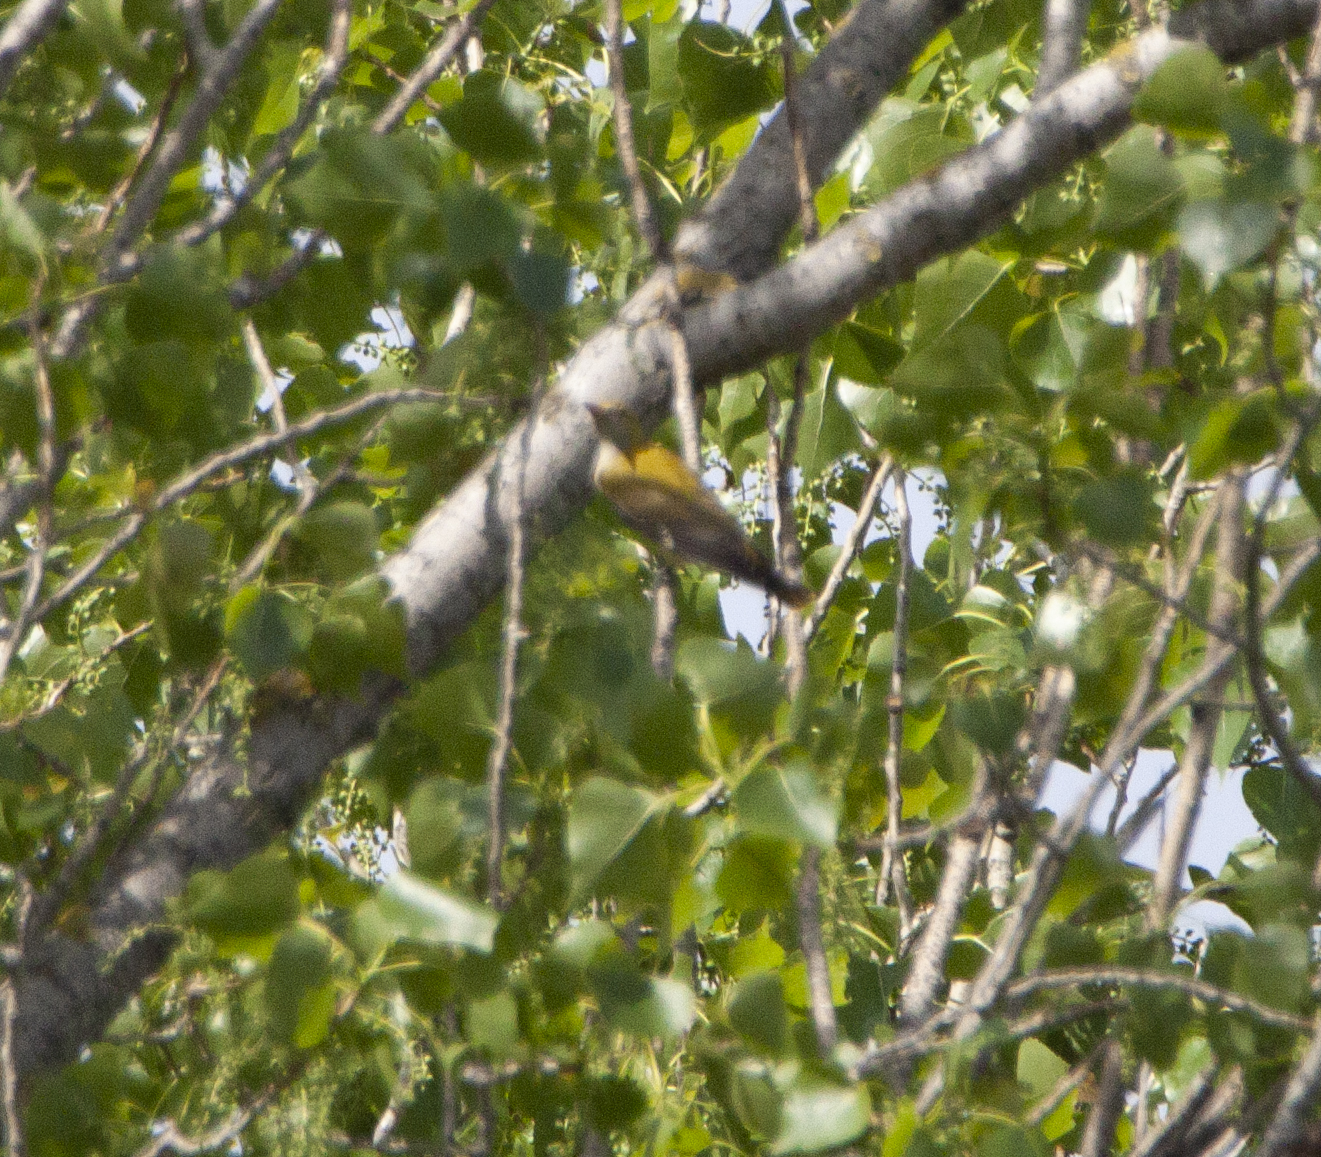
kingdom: Animalia
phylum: Chordata
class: Aves
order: Passeriformes
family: Oriolidae
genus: Oriolus
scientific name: Oriolus oriolus
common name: Eurasian golden oriole
